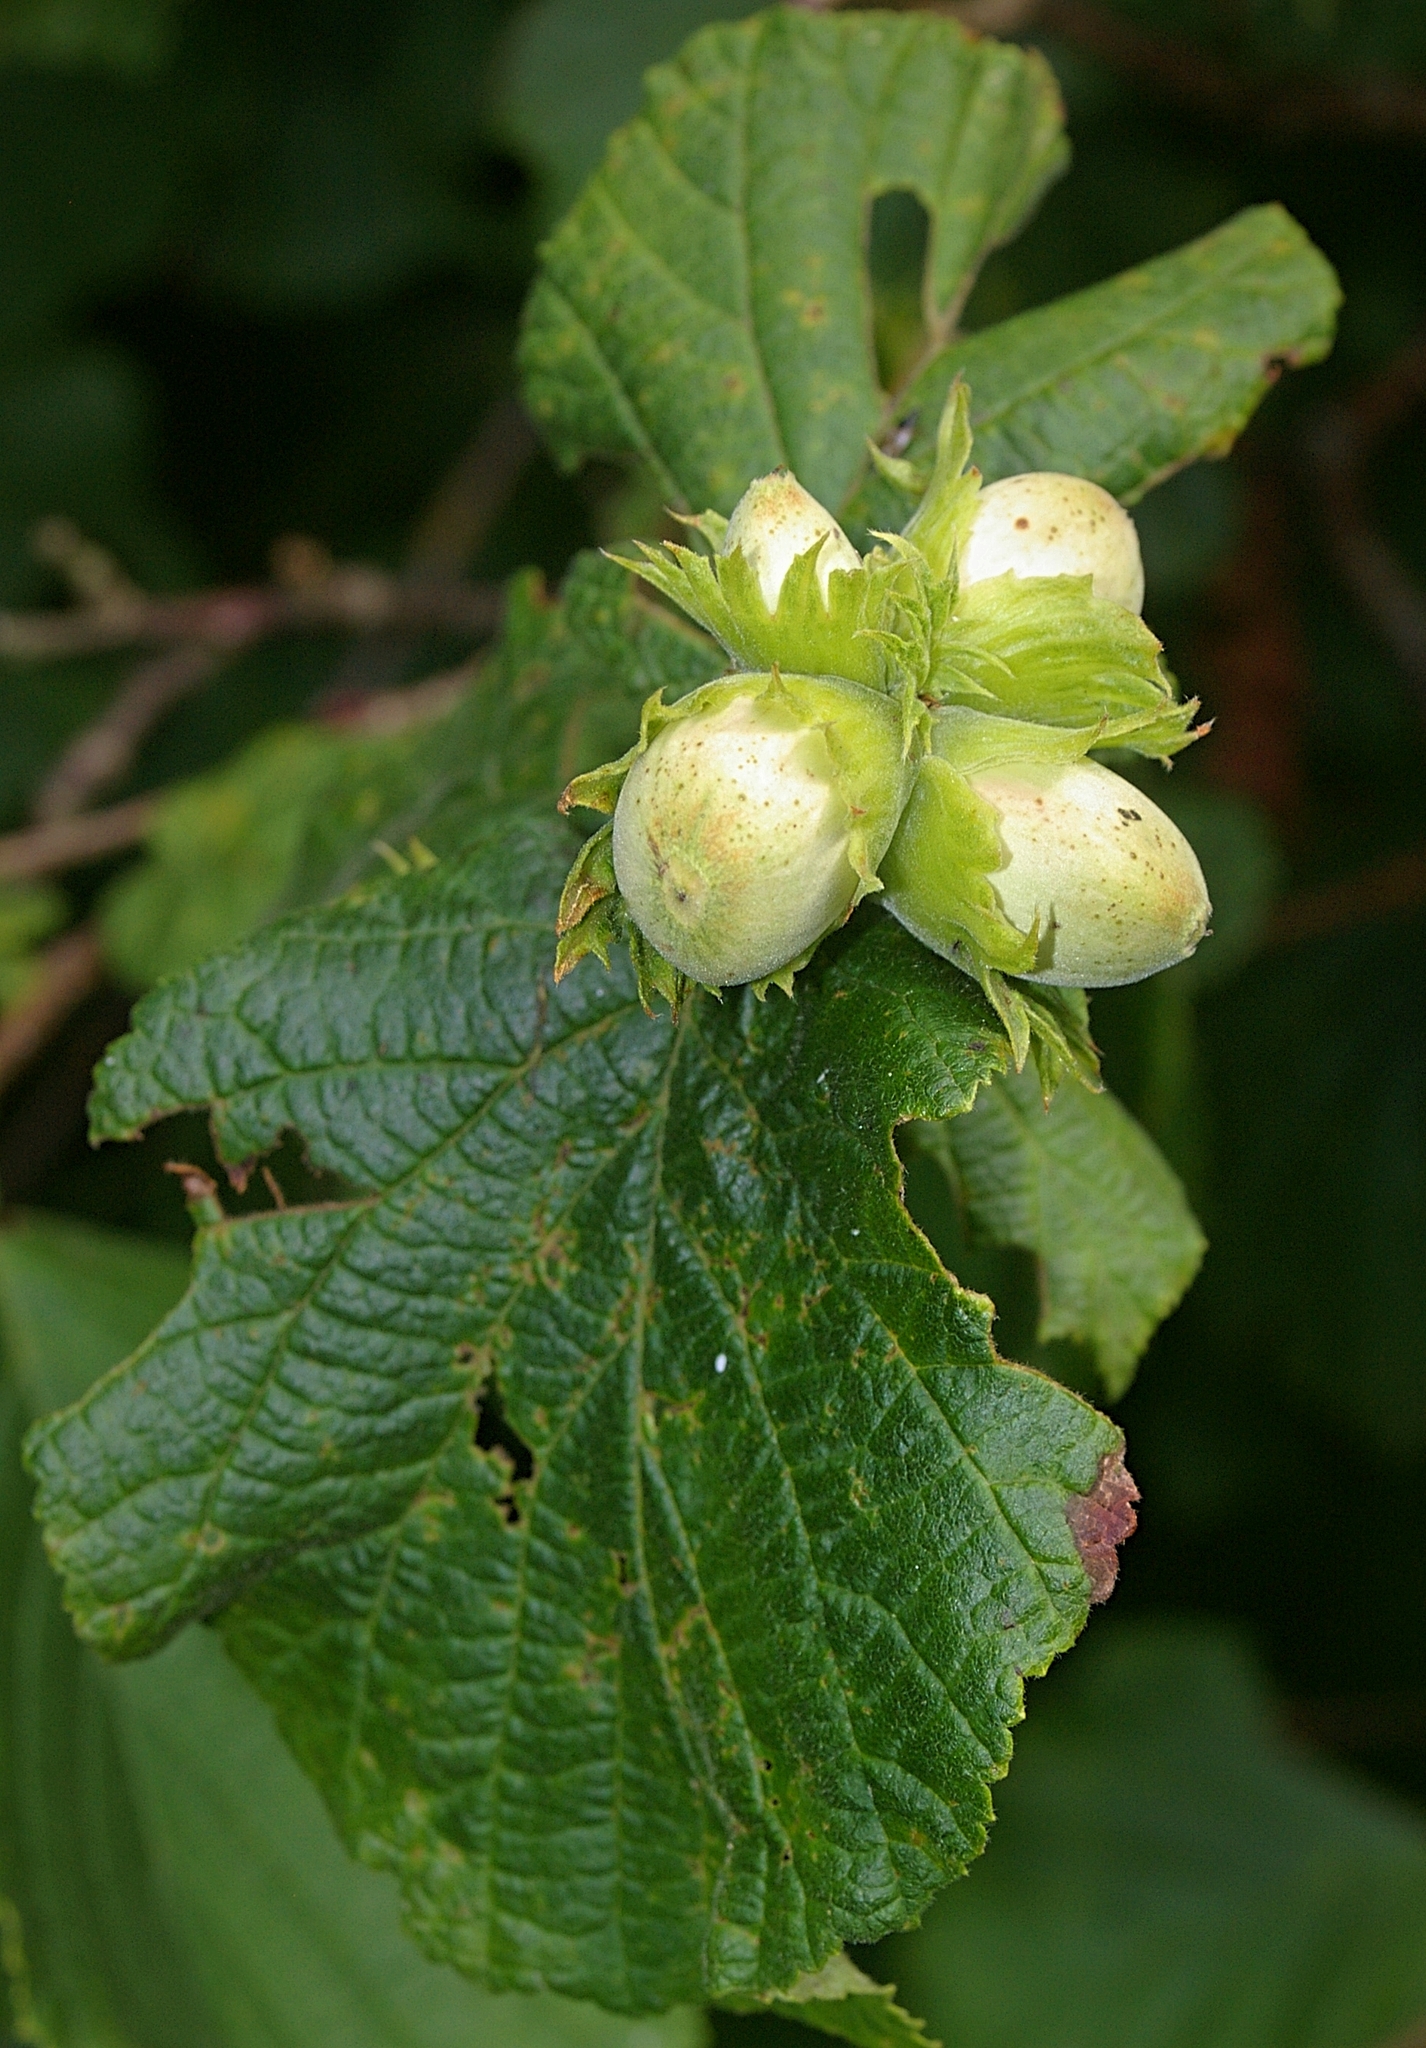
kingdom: Plantae
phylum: Tracheophyta
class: Magnoliopsida
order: Fagales
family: Betulaceae
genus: Corylus
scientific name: Corylus avellana
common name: European hazel
